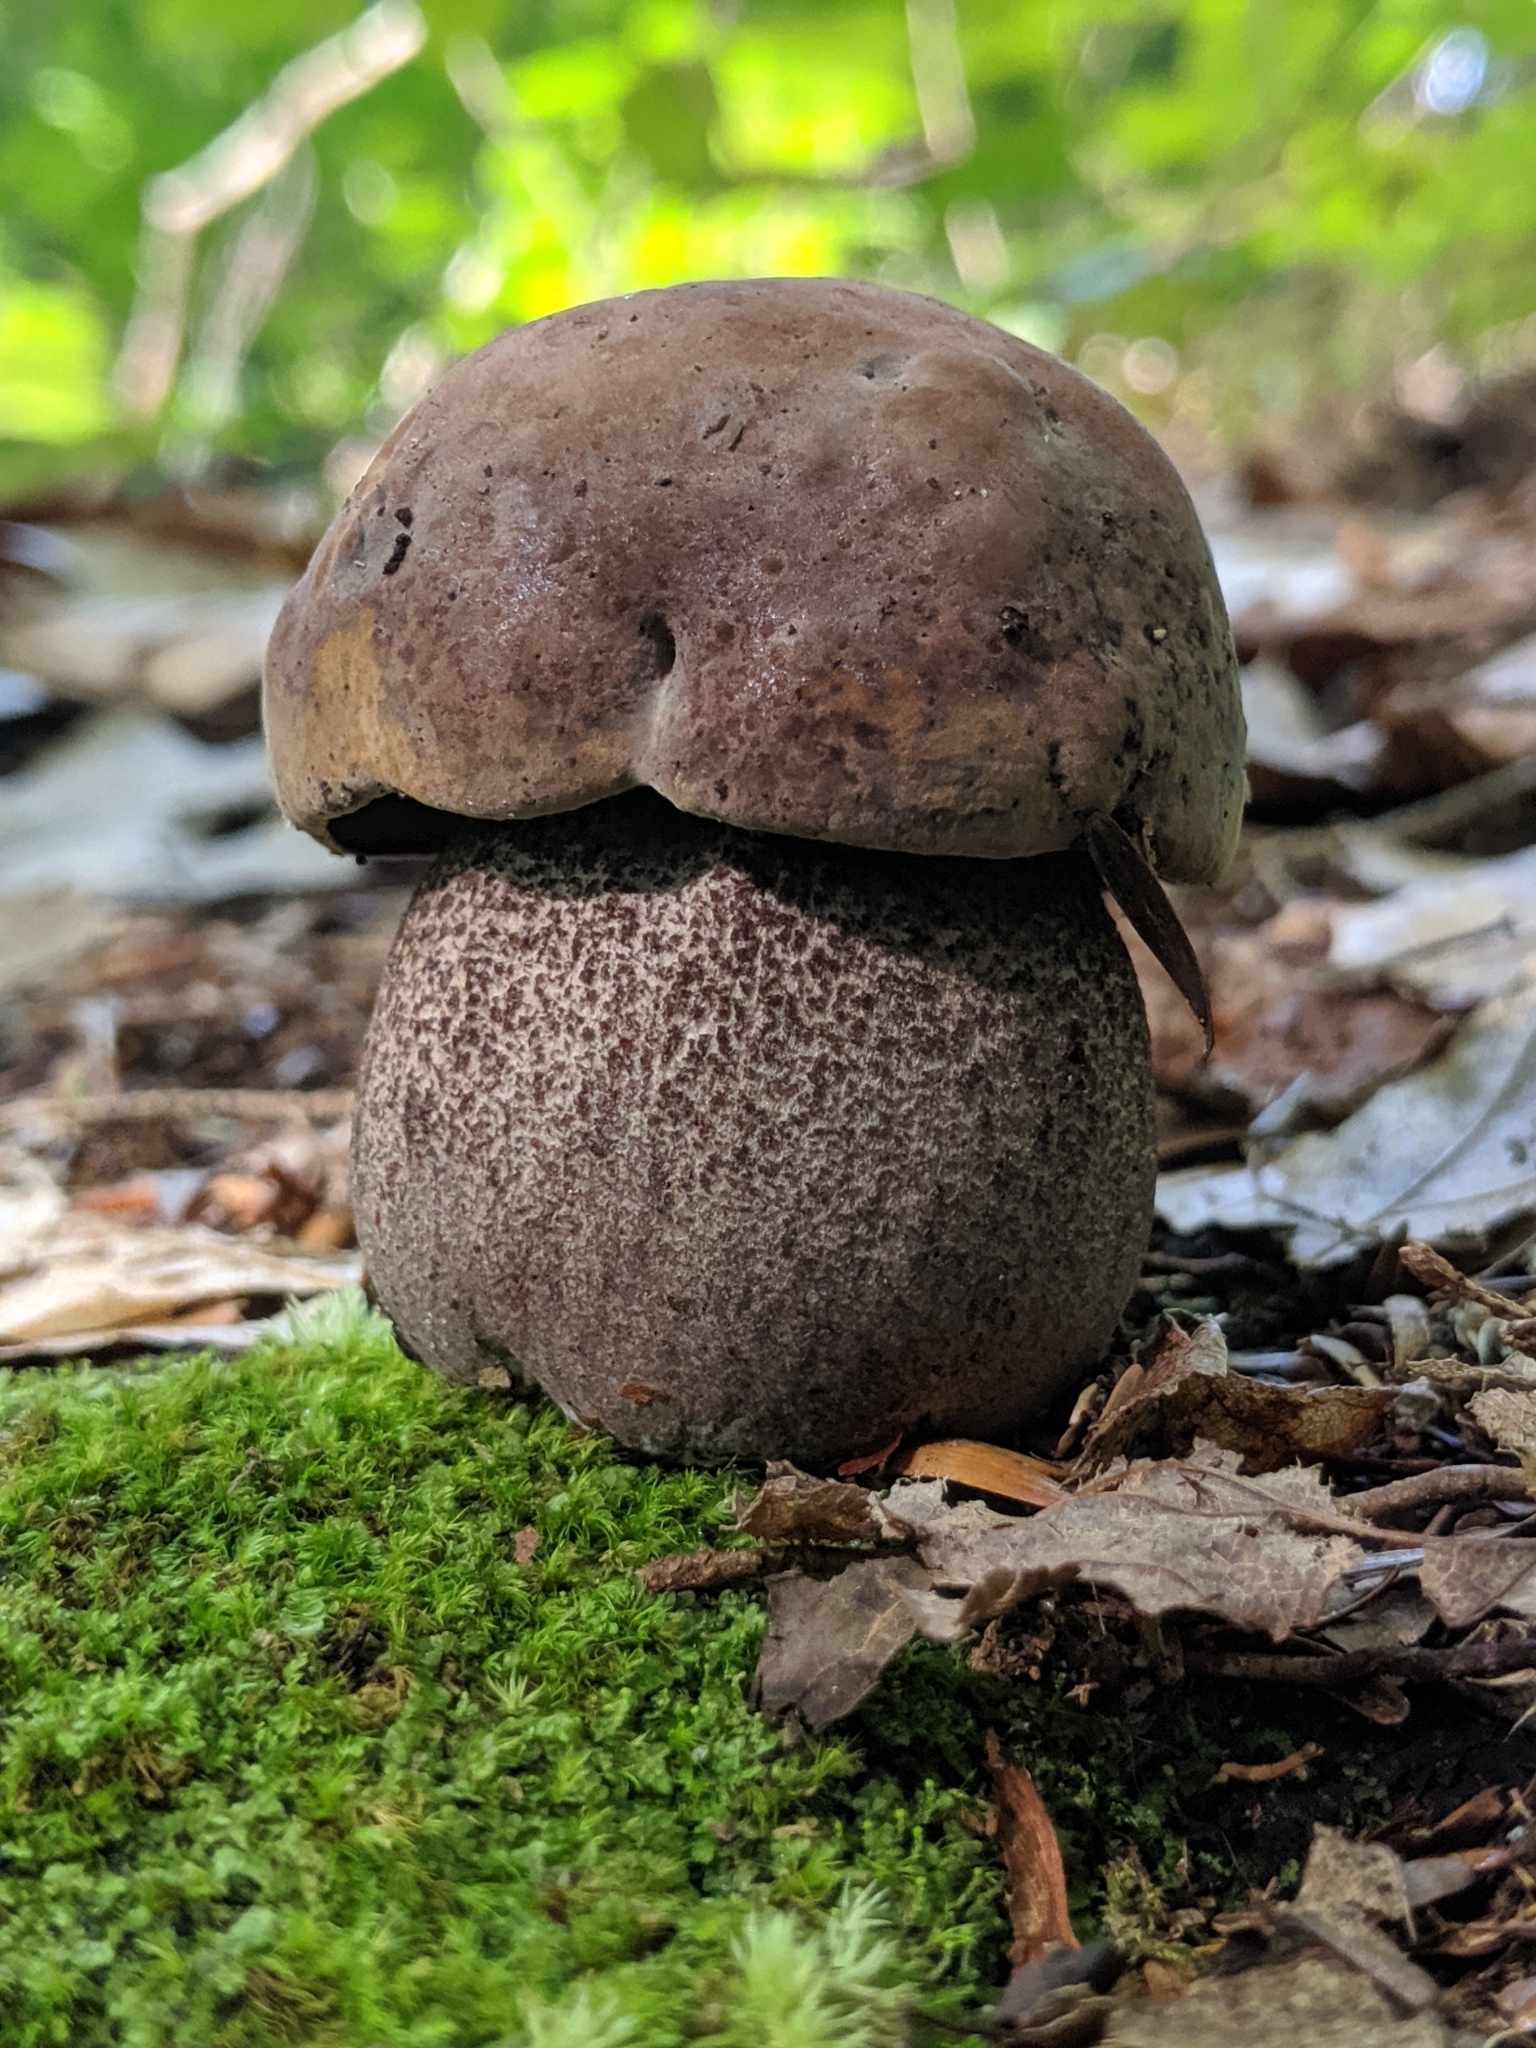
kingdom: Fungi
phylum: Basidiomycota
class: Agaricomycetes
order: Boletales
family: Boletaceae
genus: Sutorius
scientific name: Sutorius eximius
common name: Lilac-brown bolete
